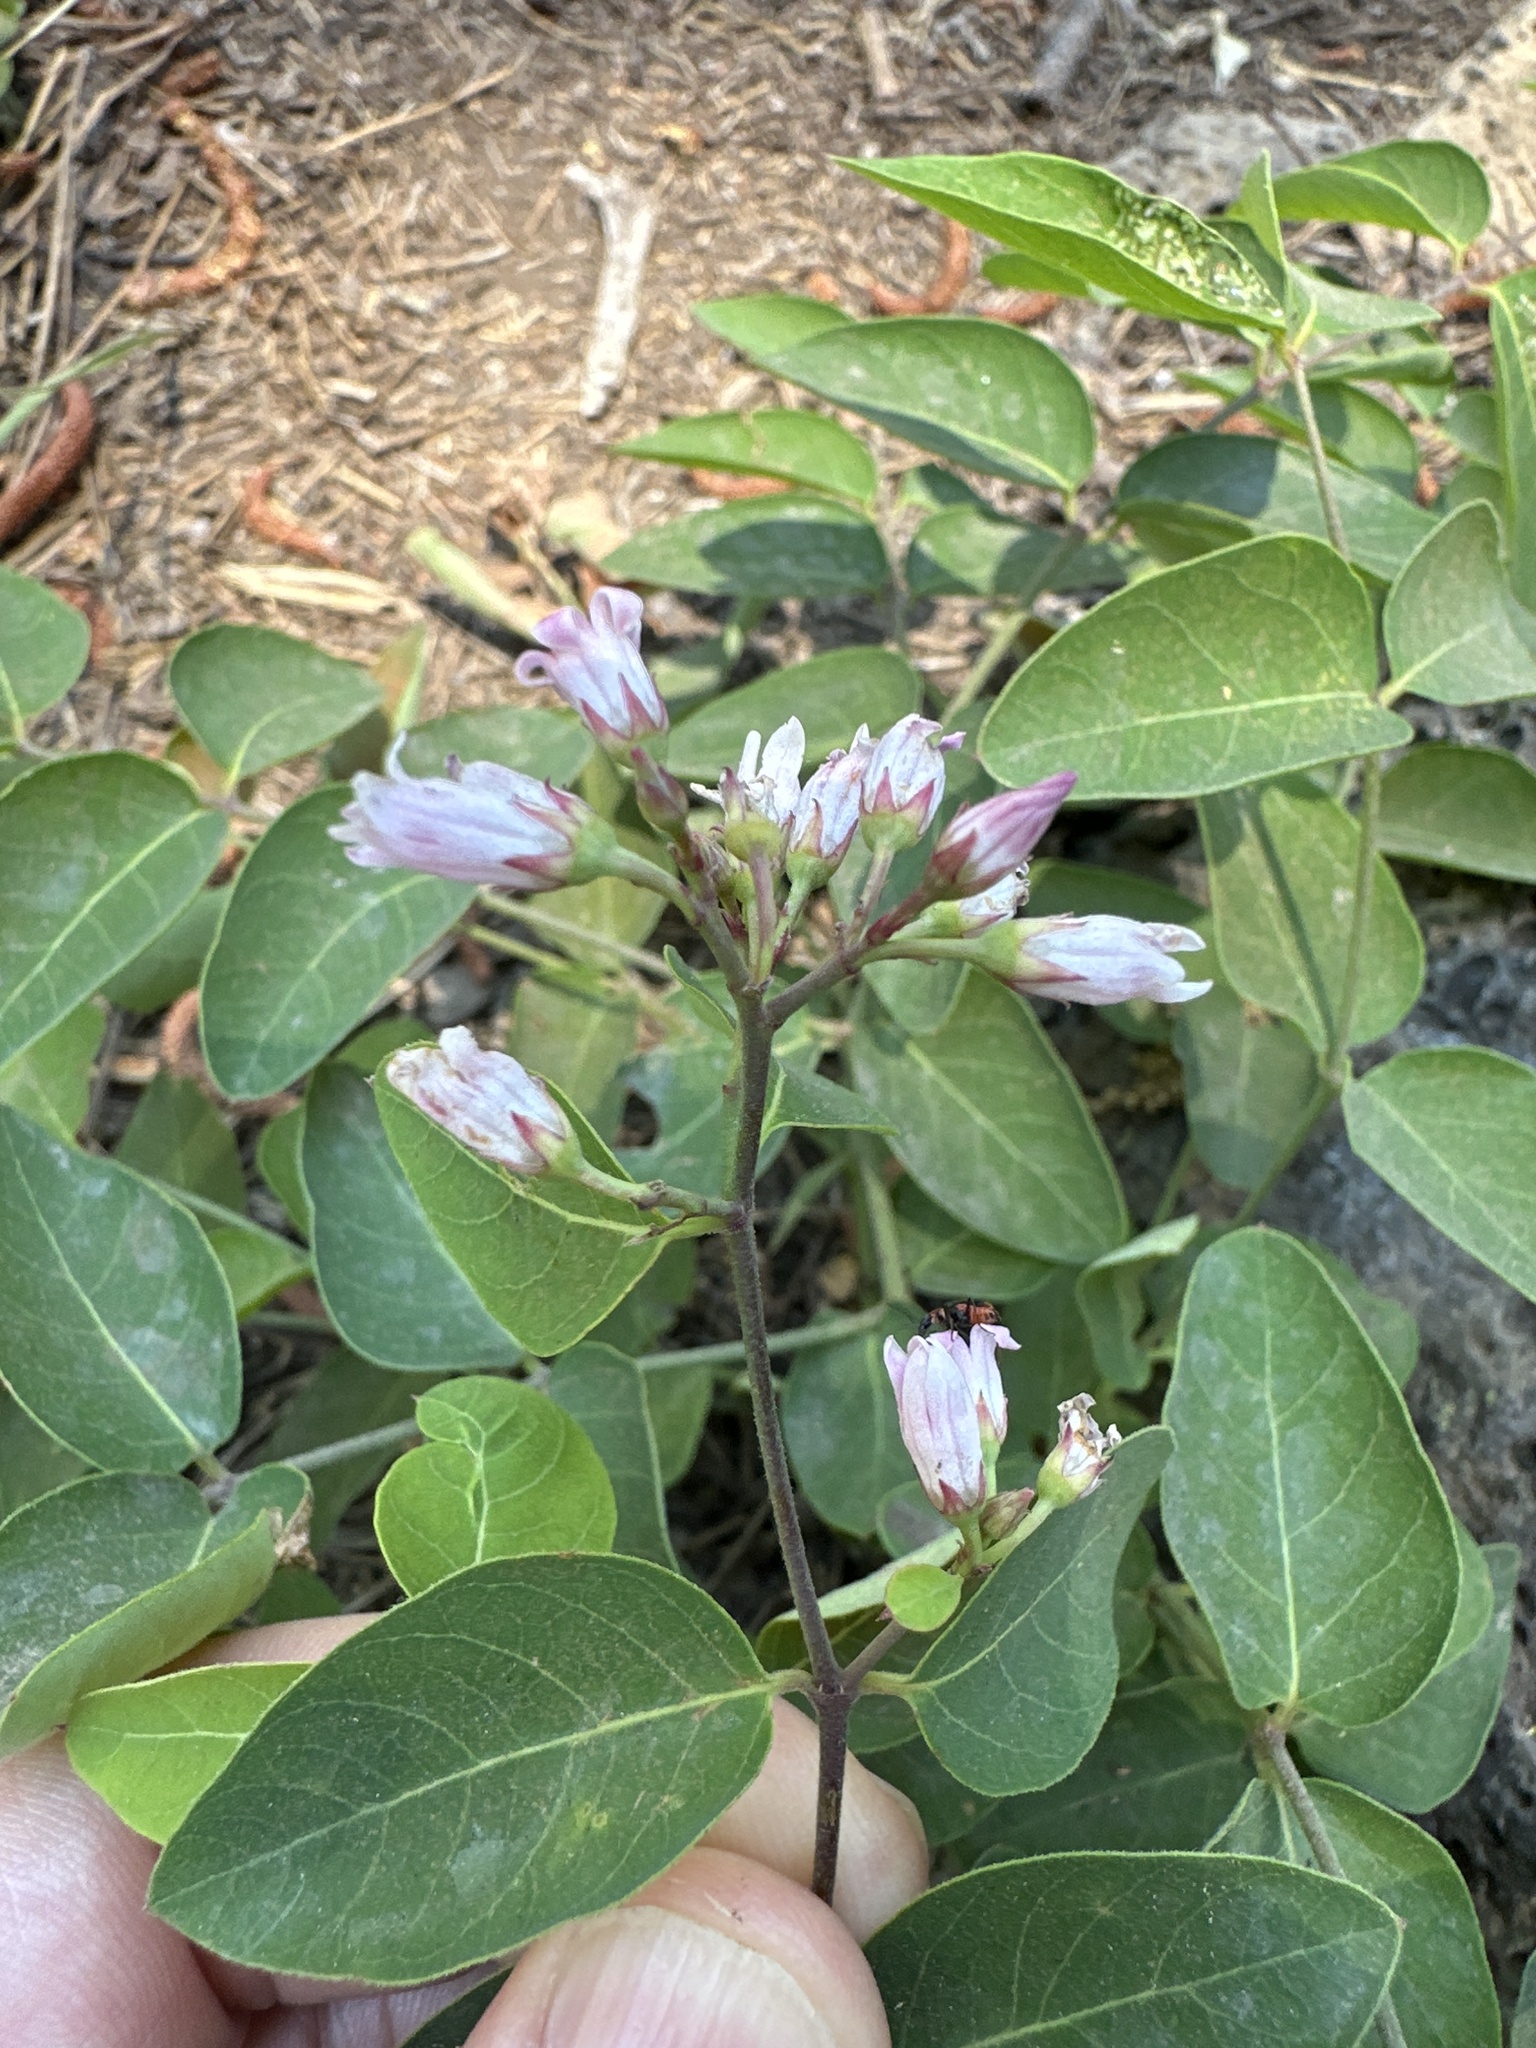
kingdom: Plantae
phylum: Tracheophyta
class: Magnoliopsida
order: Gentianales
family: Apocynaceae
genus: Apocynum
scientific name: Apocynum androsaemifolium
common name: Spreading dogbane
